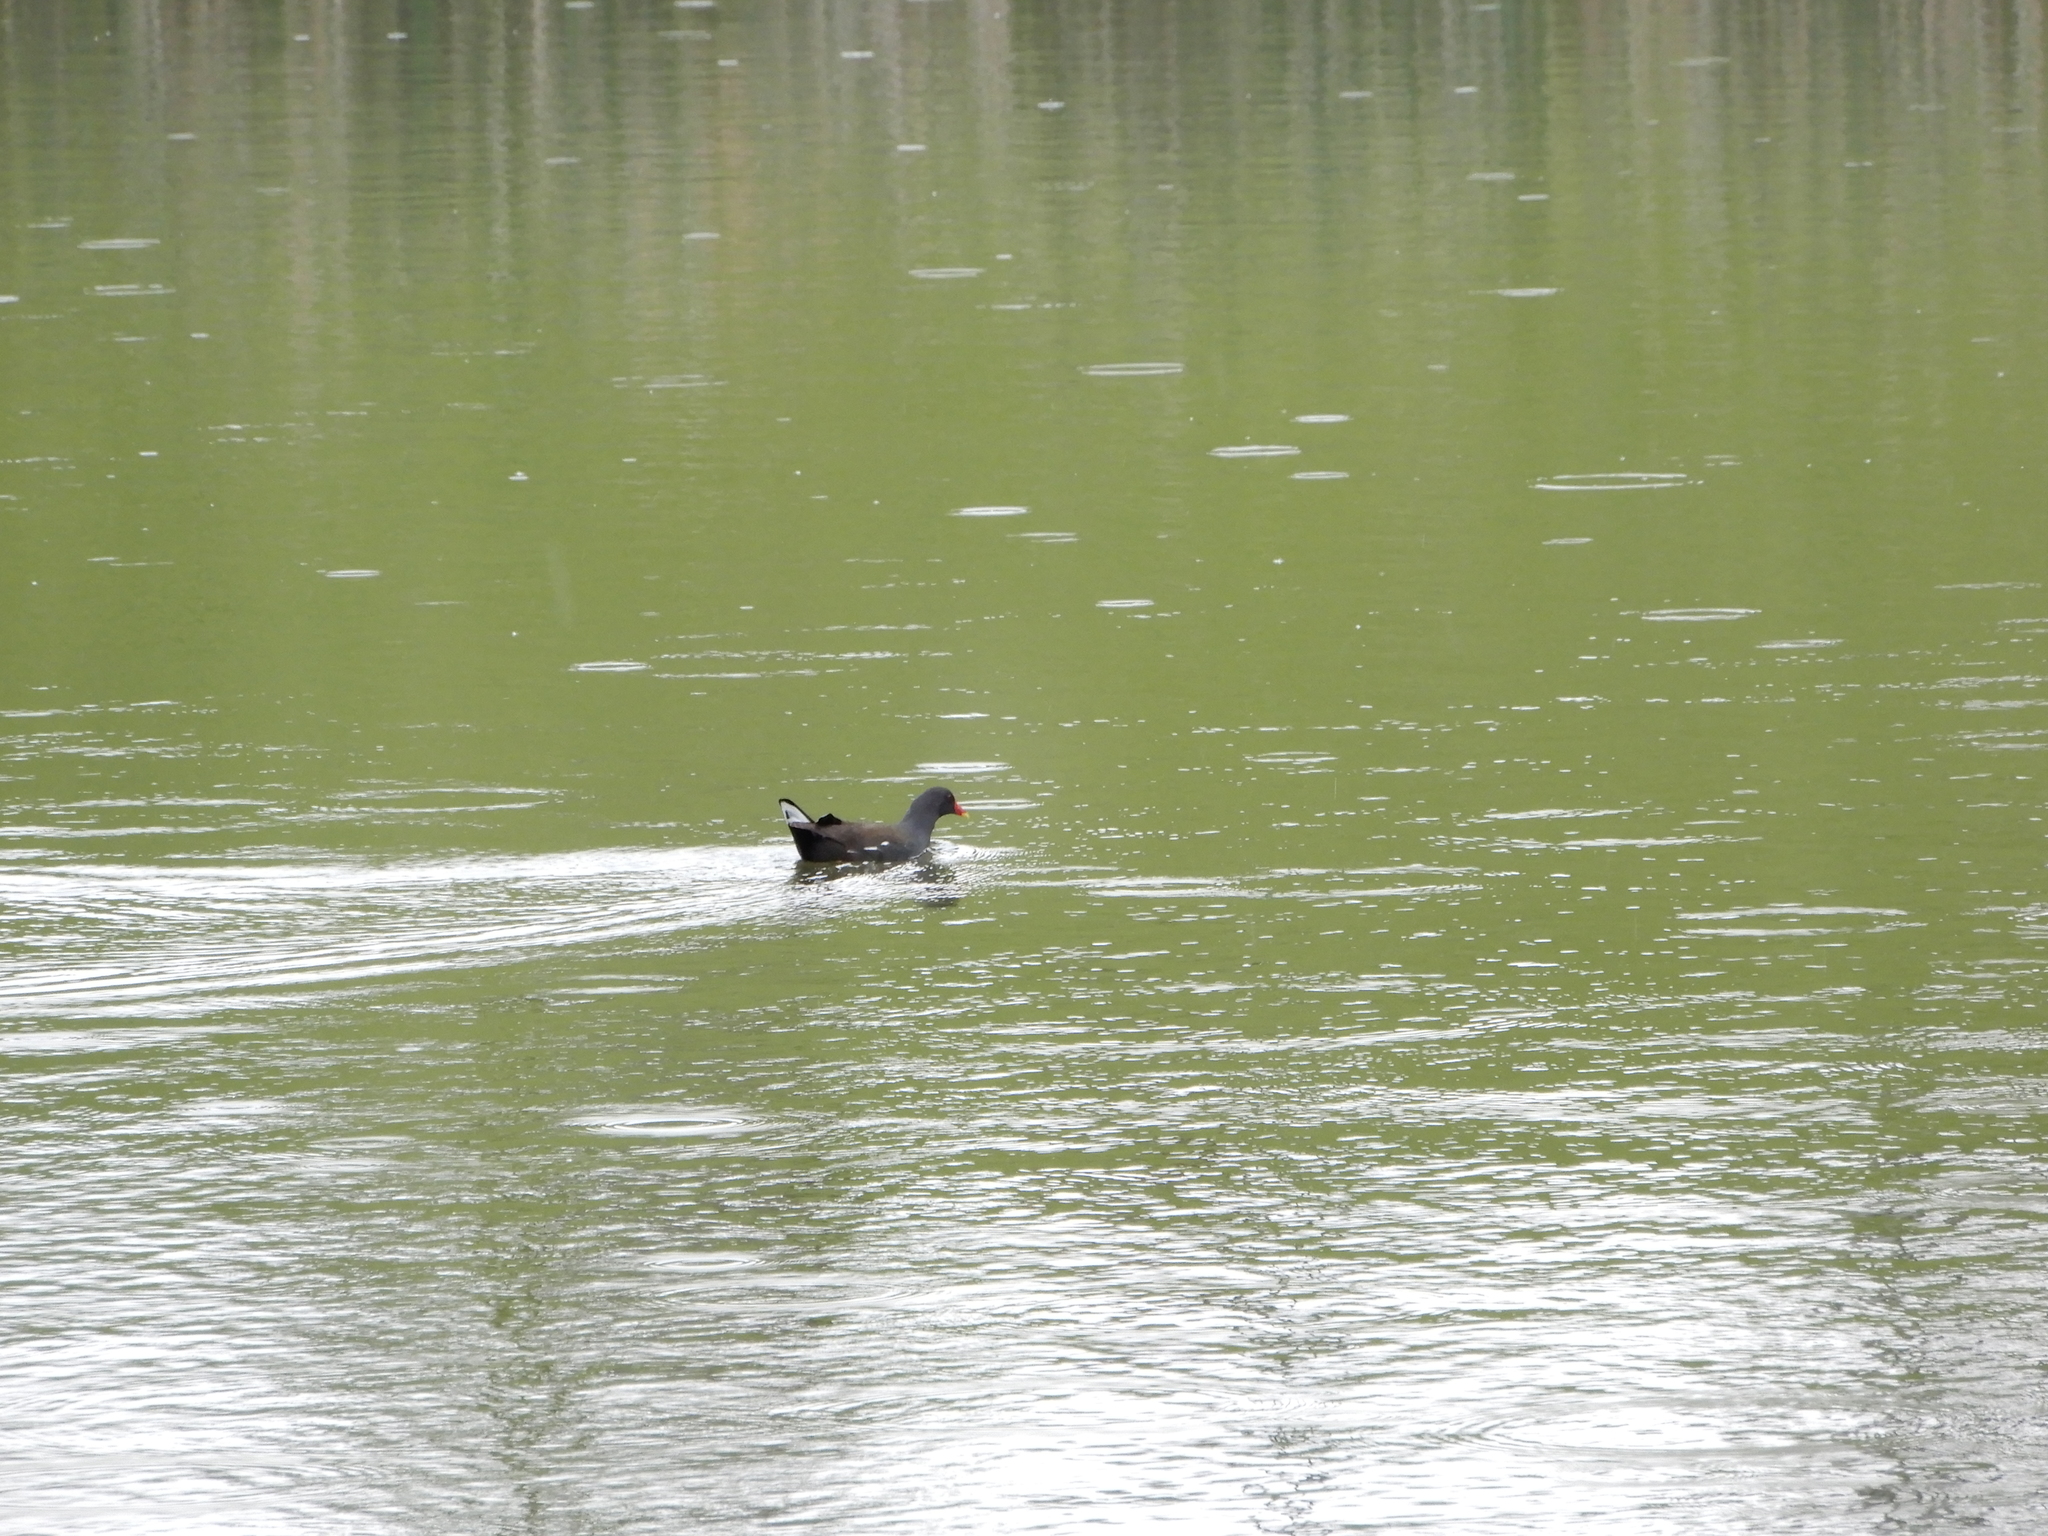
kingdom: Animalia
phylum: Chordata
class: Aves
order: Gruiformes
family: Rallidae
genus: Gallinula
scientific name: Gallinula chloropus
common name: Common moorhen
